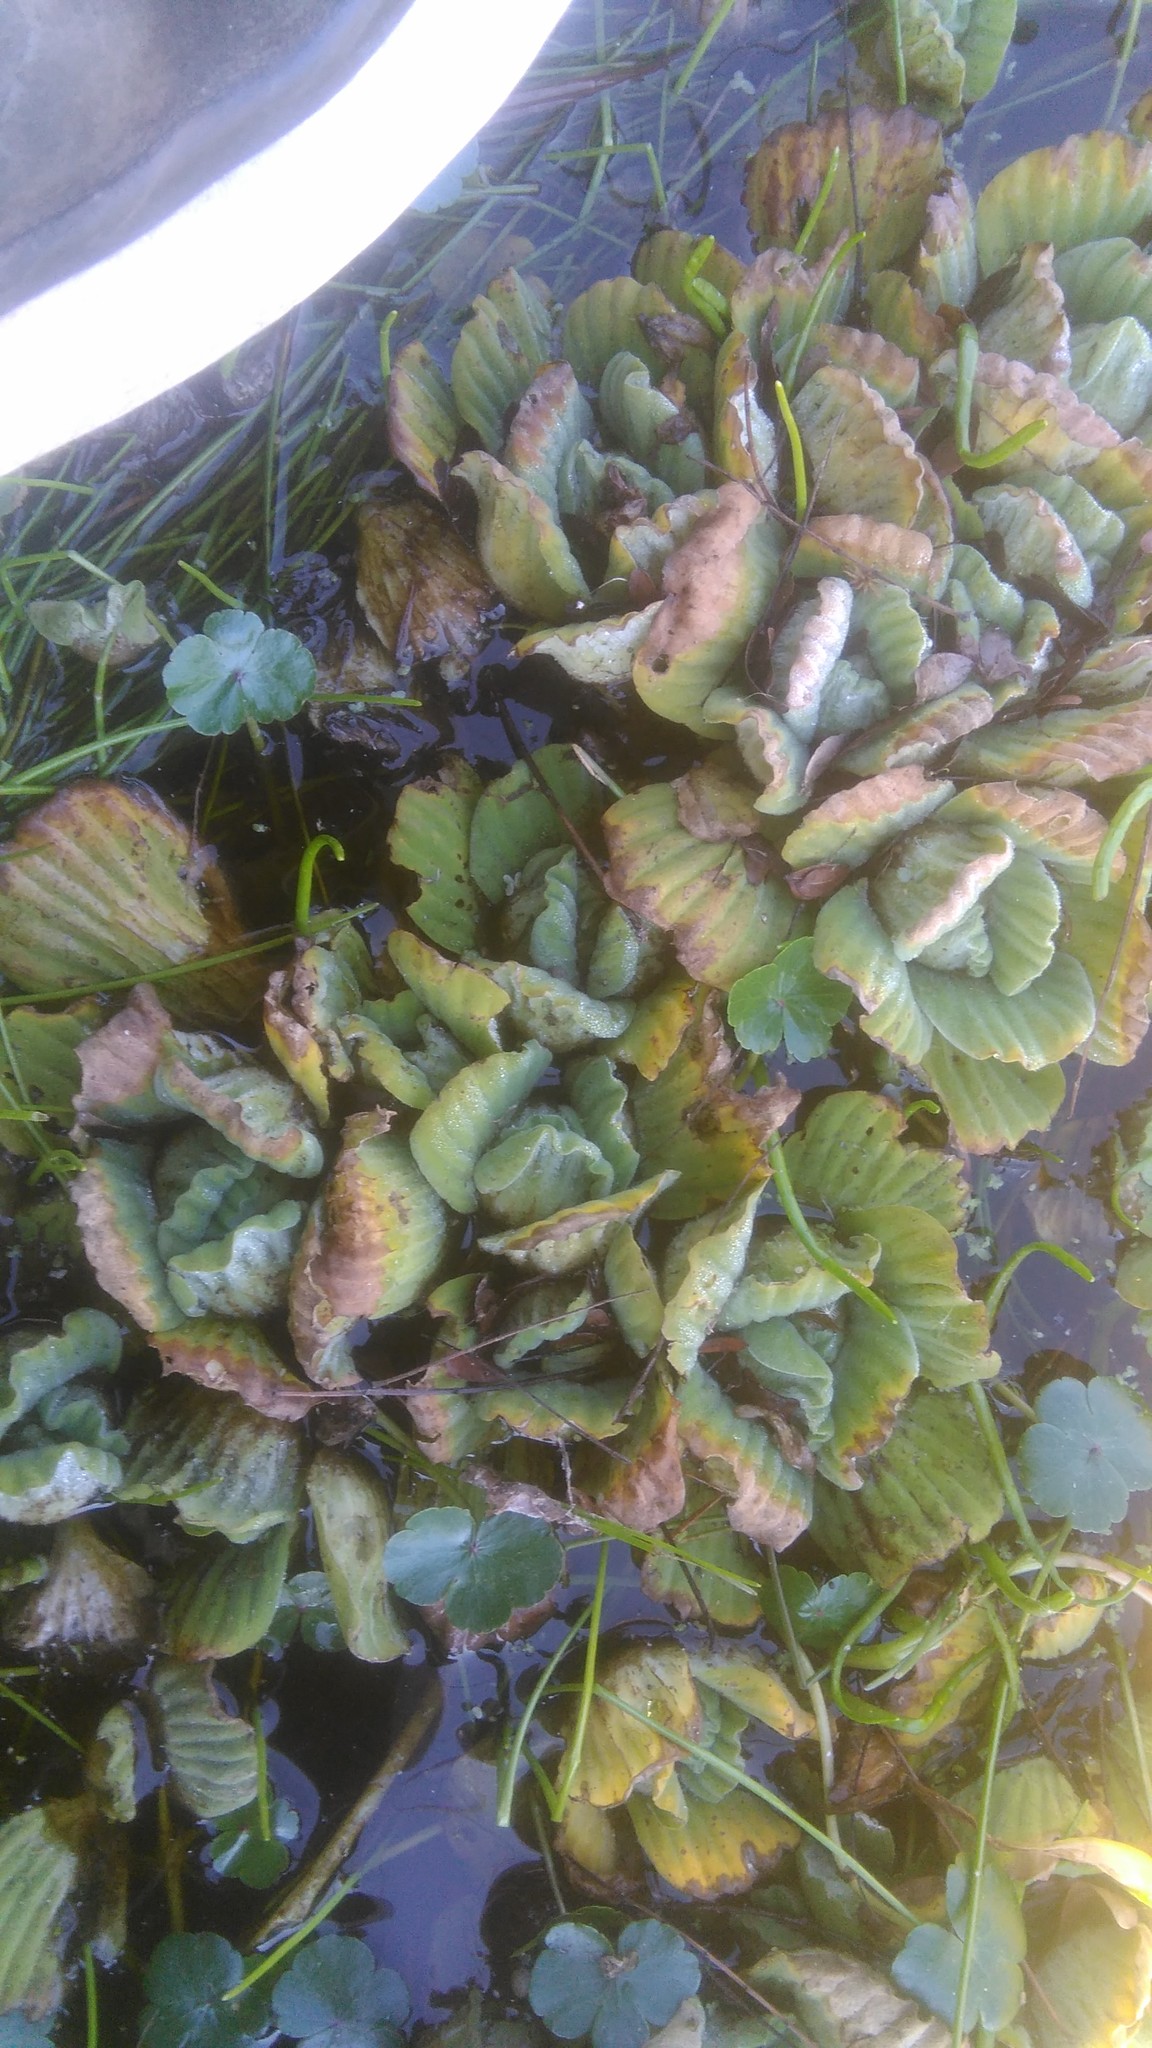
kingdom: Plantae
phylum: Tracheophyta
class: Liliopsida
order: Alismatales
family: Araceae
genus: Pistia
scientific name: Pistia stratiotes
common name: Water lettuce
